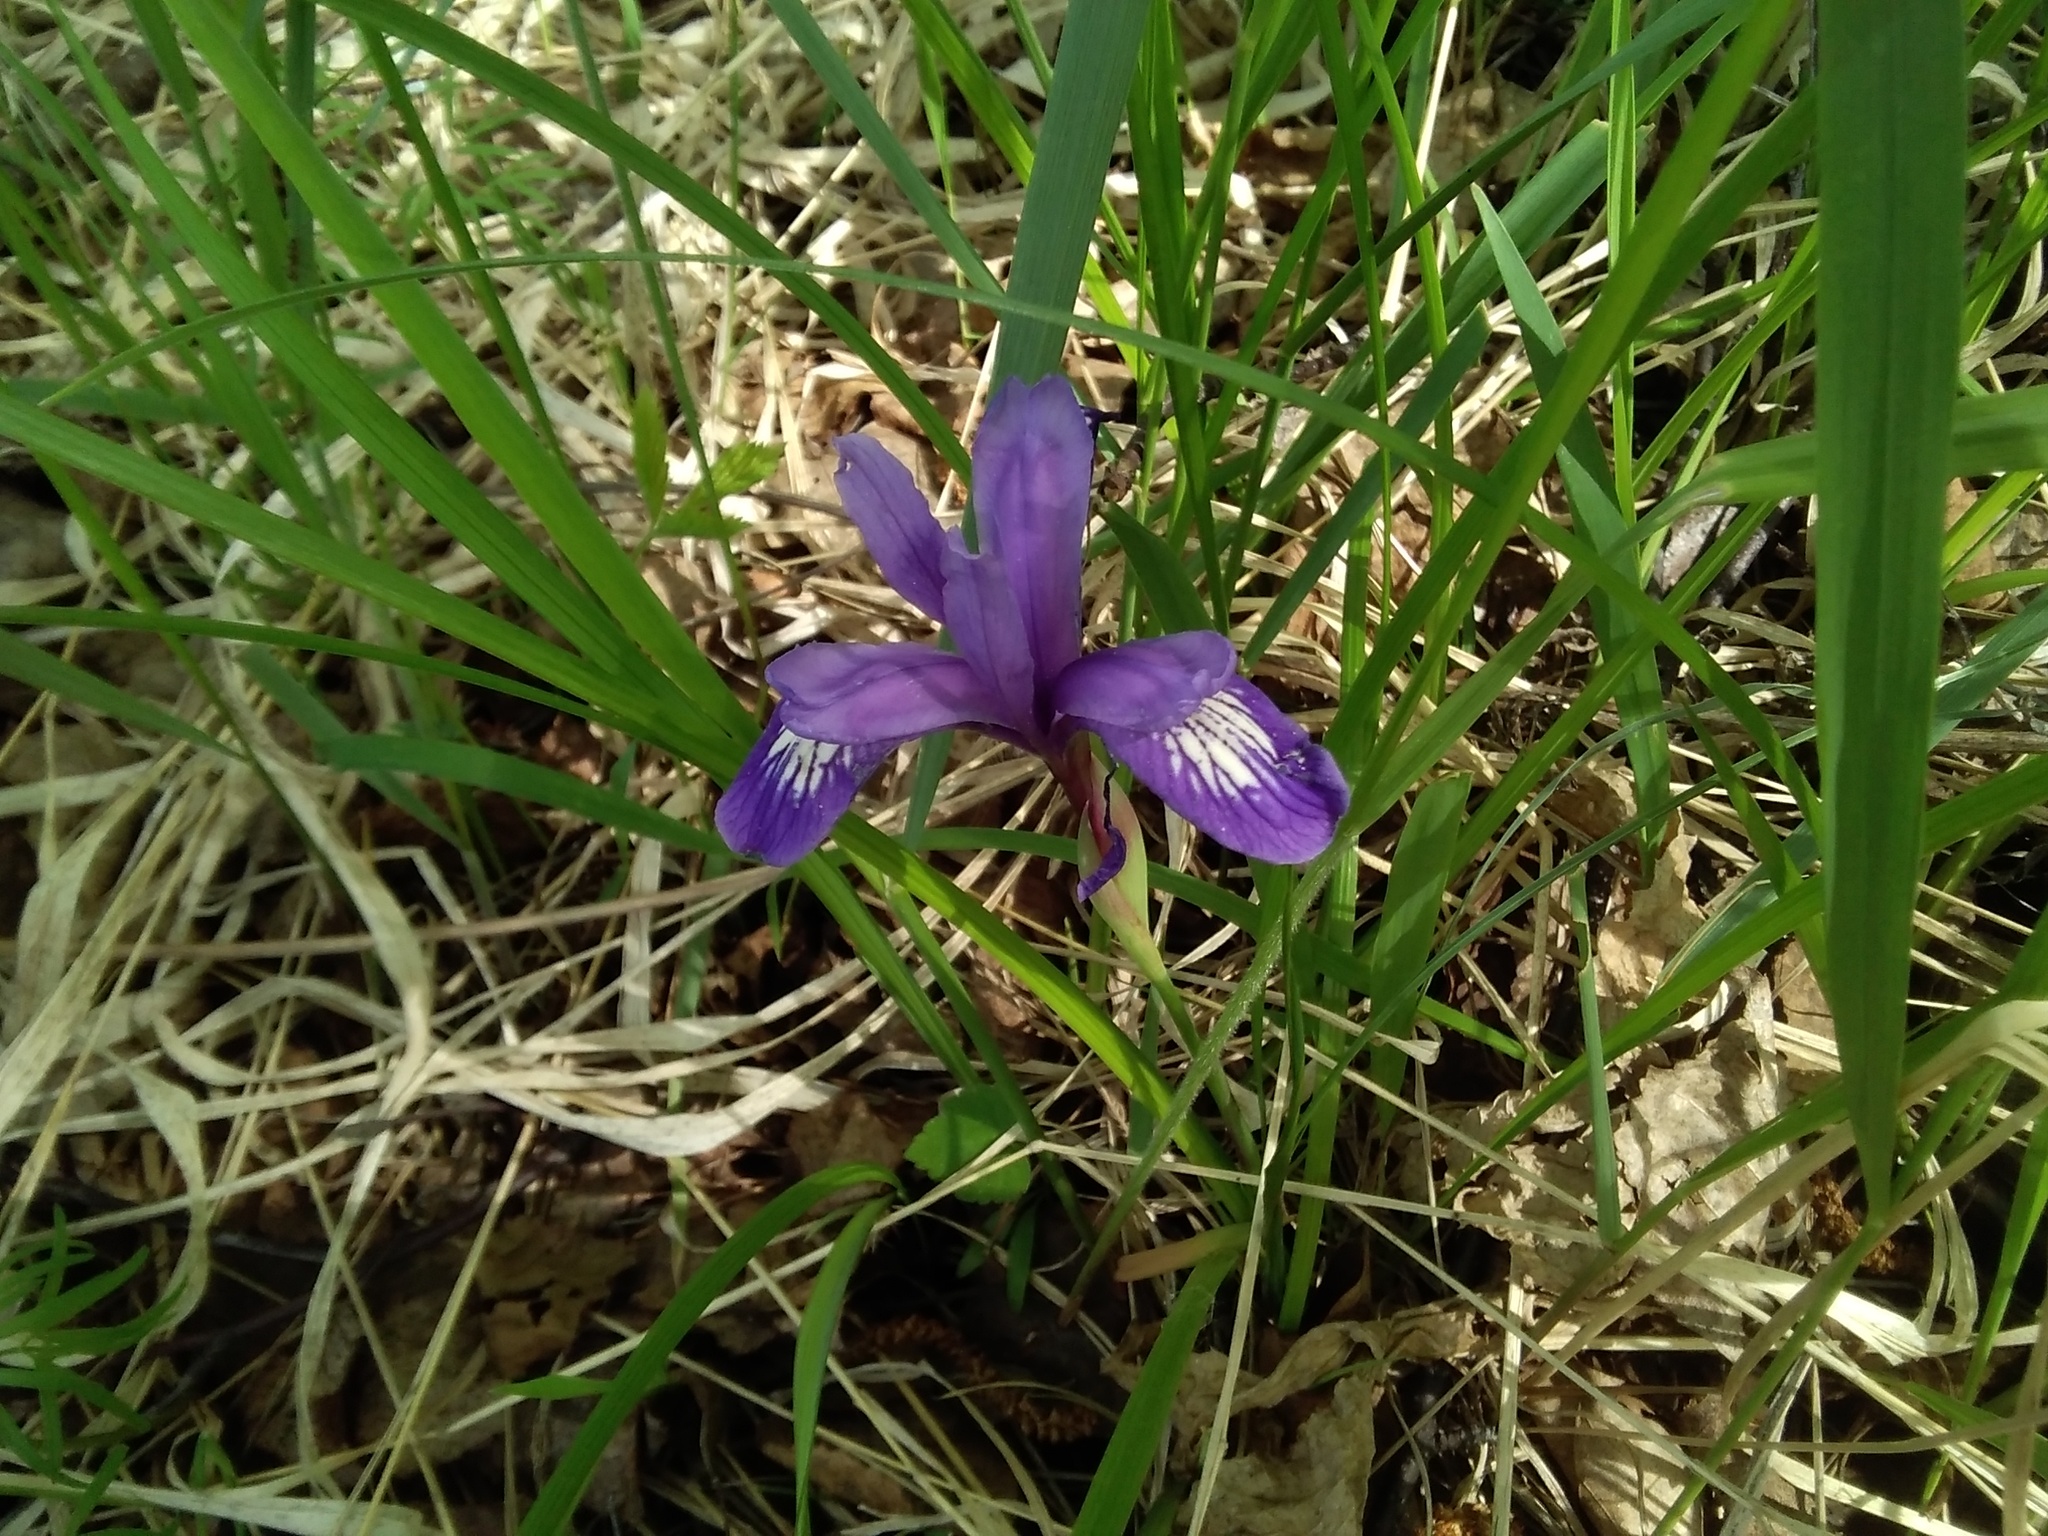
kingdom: Plantae
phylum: Tracheophyta
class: Liliopsida
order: Asparagales
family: Iridaceae
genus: Iris
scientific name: Iris ruthenica
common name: Purple-bract iris
